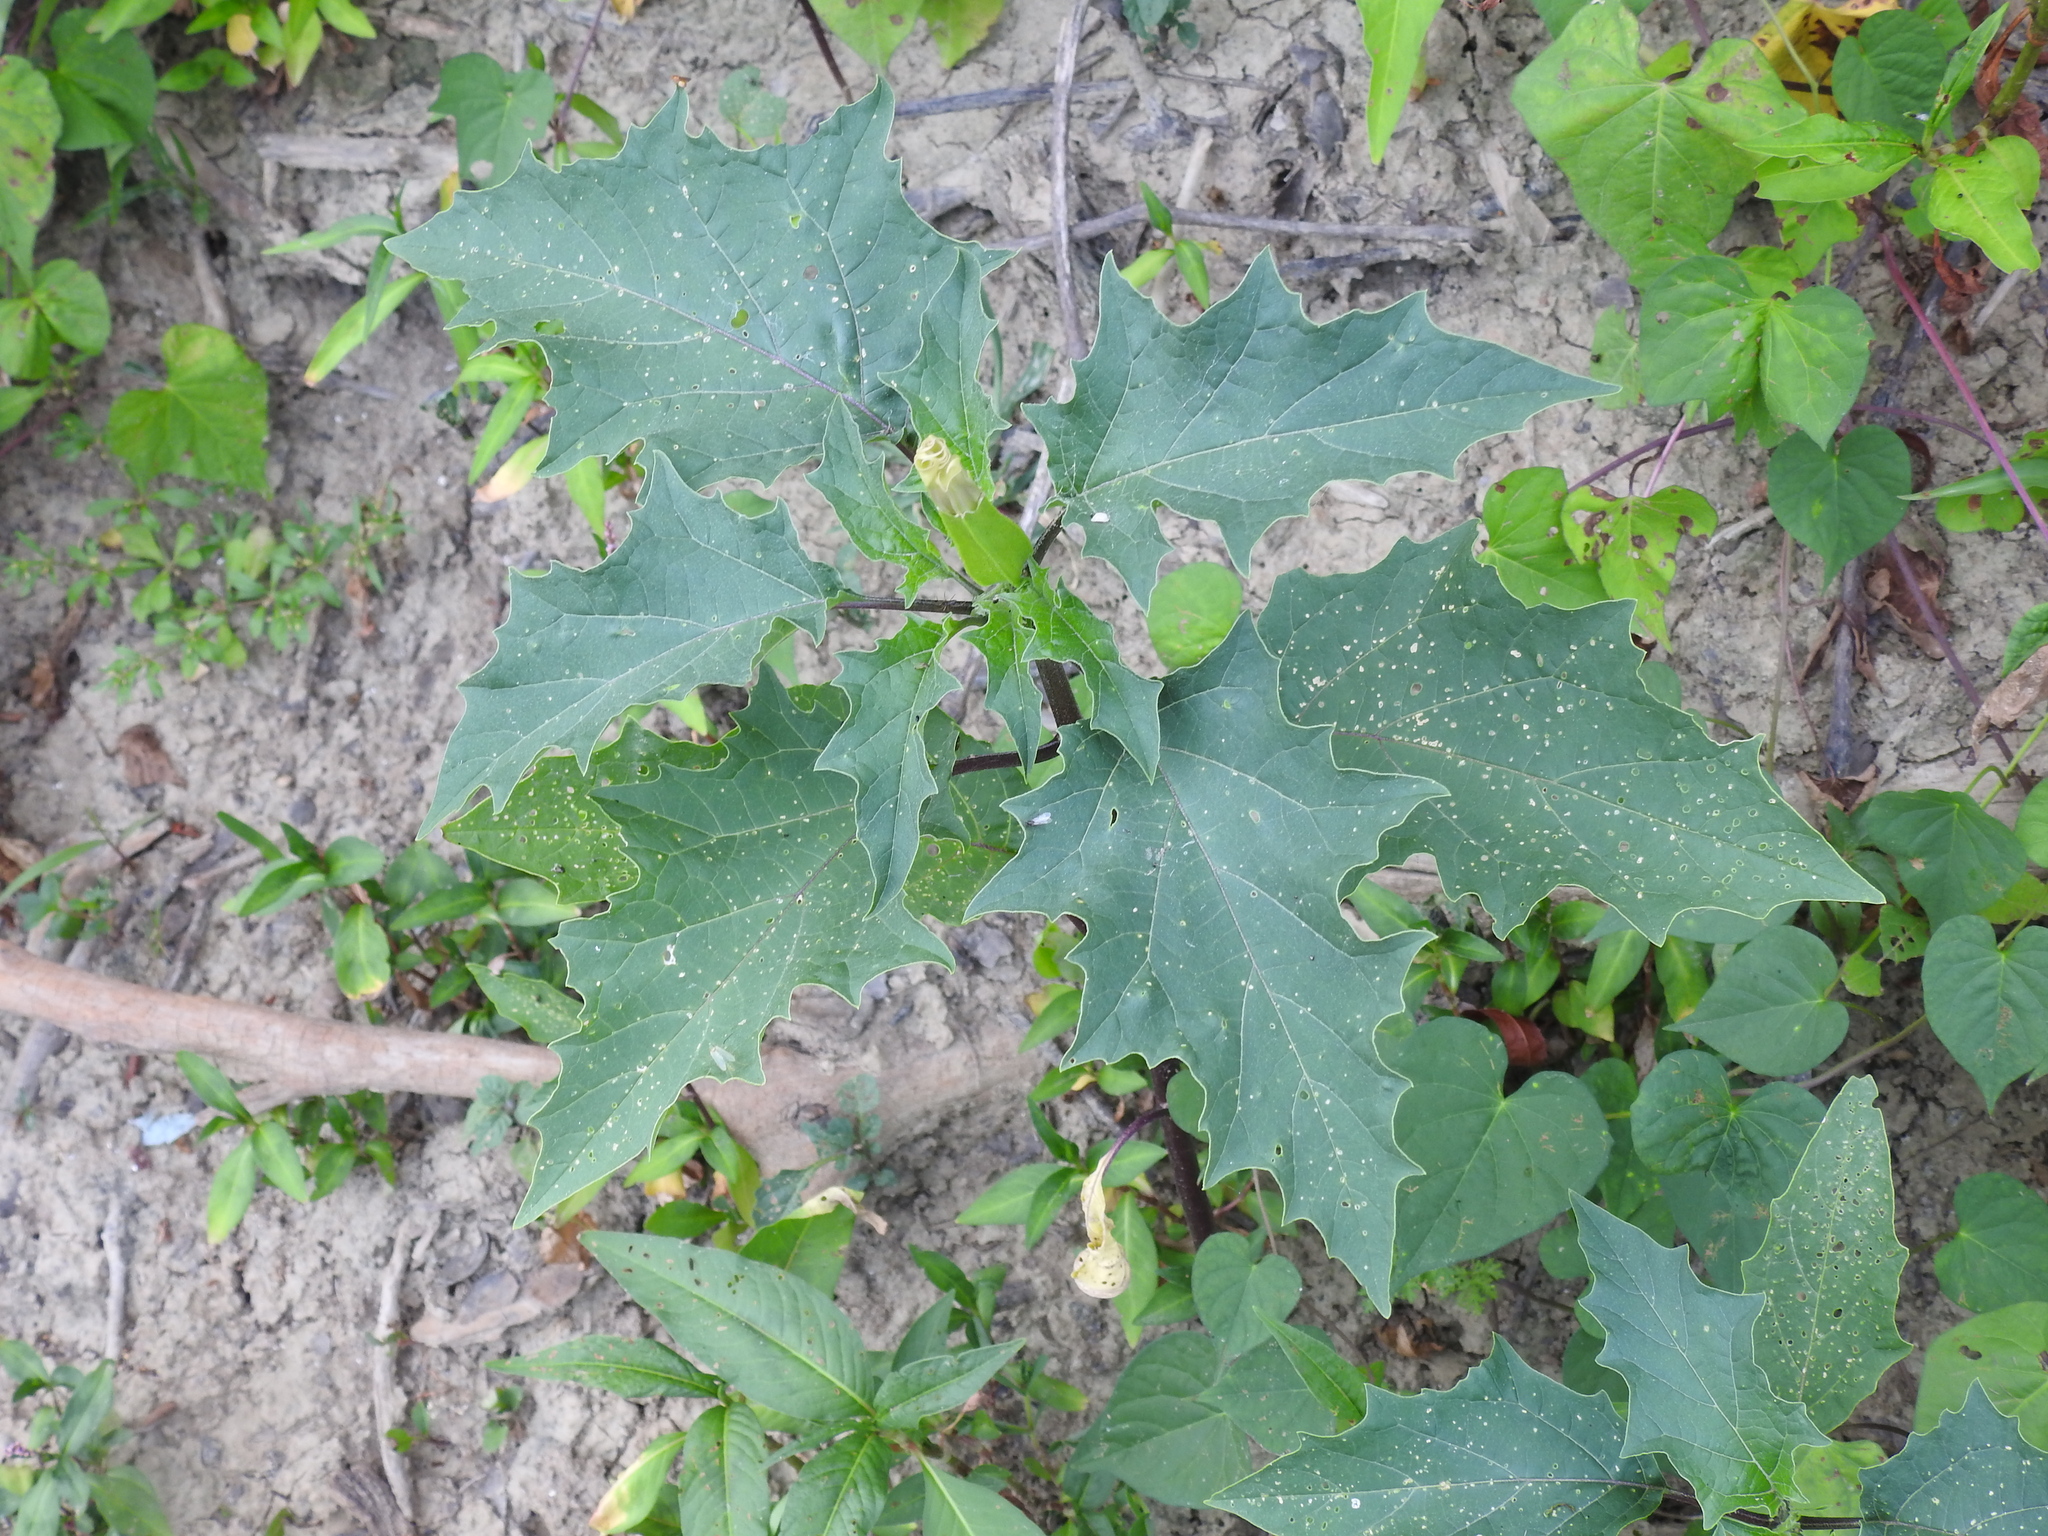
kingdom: Plantae
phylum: Tracheophyta
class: Magnoliopsida
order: Solanales
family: Solanaceae
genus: Datura
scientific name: Datura stramonium
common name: Thorn-apple
